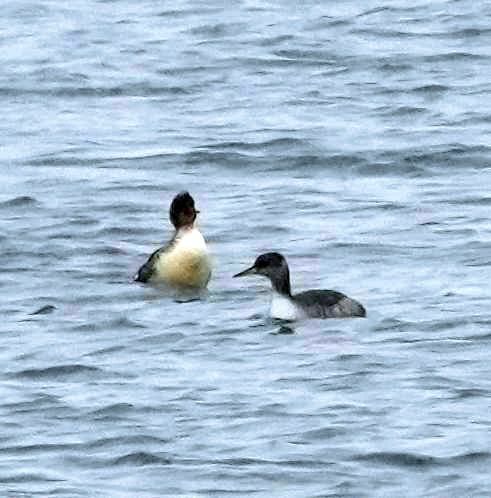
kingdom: Animalia
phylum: Chordata
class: Aves
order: Podicipediformes
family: Podicipedidae
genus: Podiceps
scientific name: Podiceps grisegena
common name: Red-necked grebe
